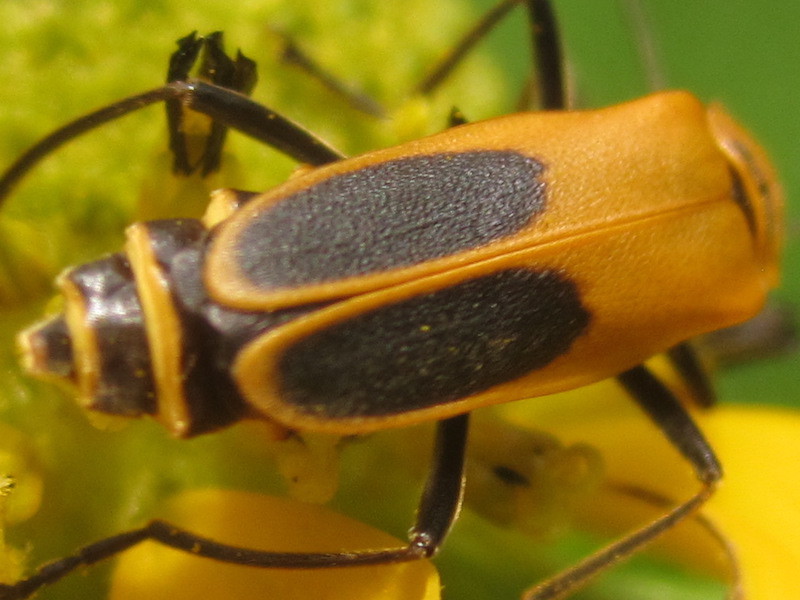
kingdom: Animalia
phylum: Arthropoda
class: Insecta
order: Coleoptera
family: Cantharidae
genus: Chauliognathus
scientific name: Chauliognathus pensylvanicus
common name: Goldenrod soldier beetle
